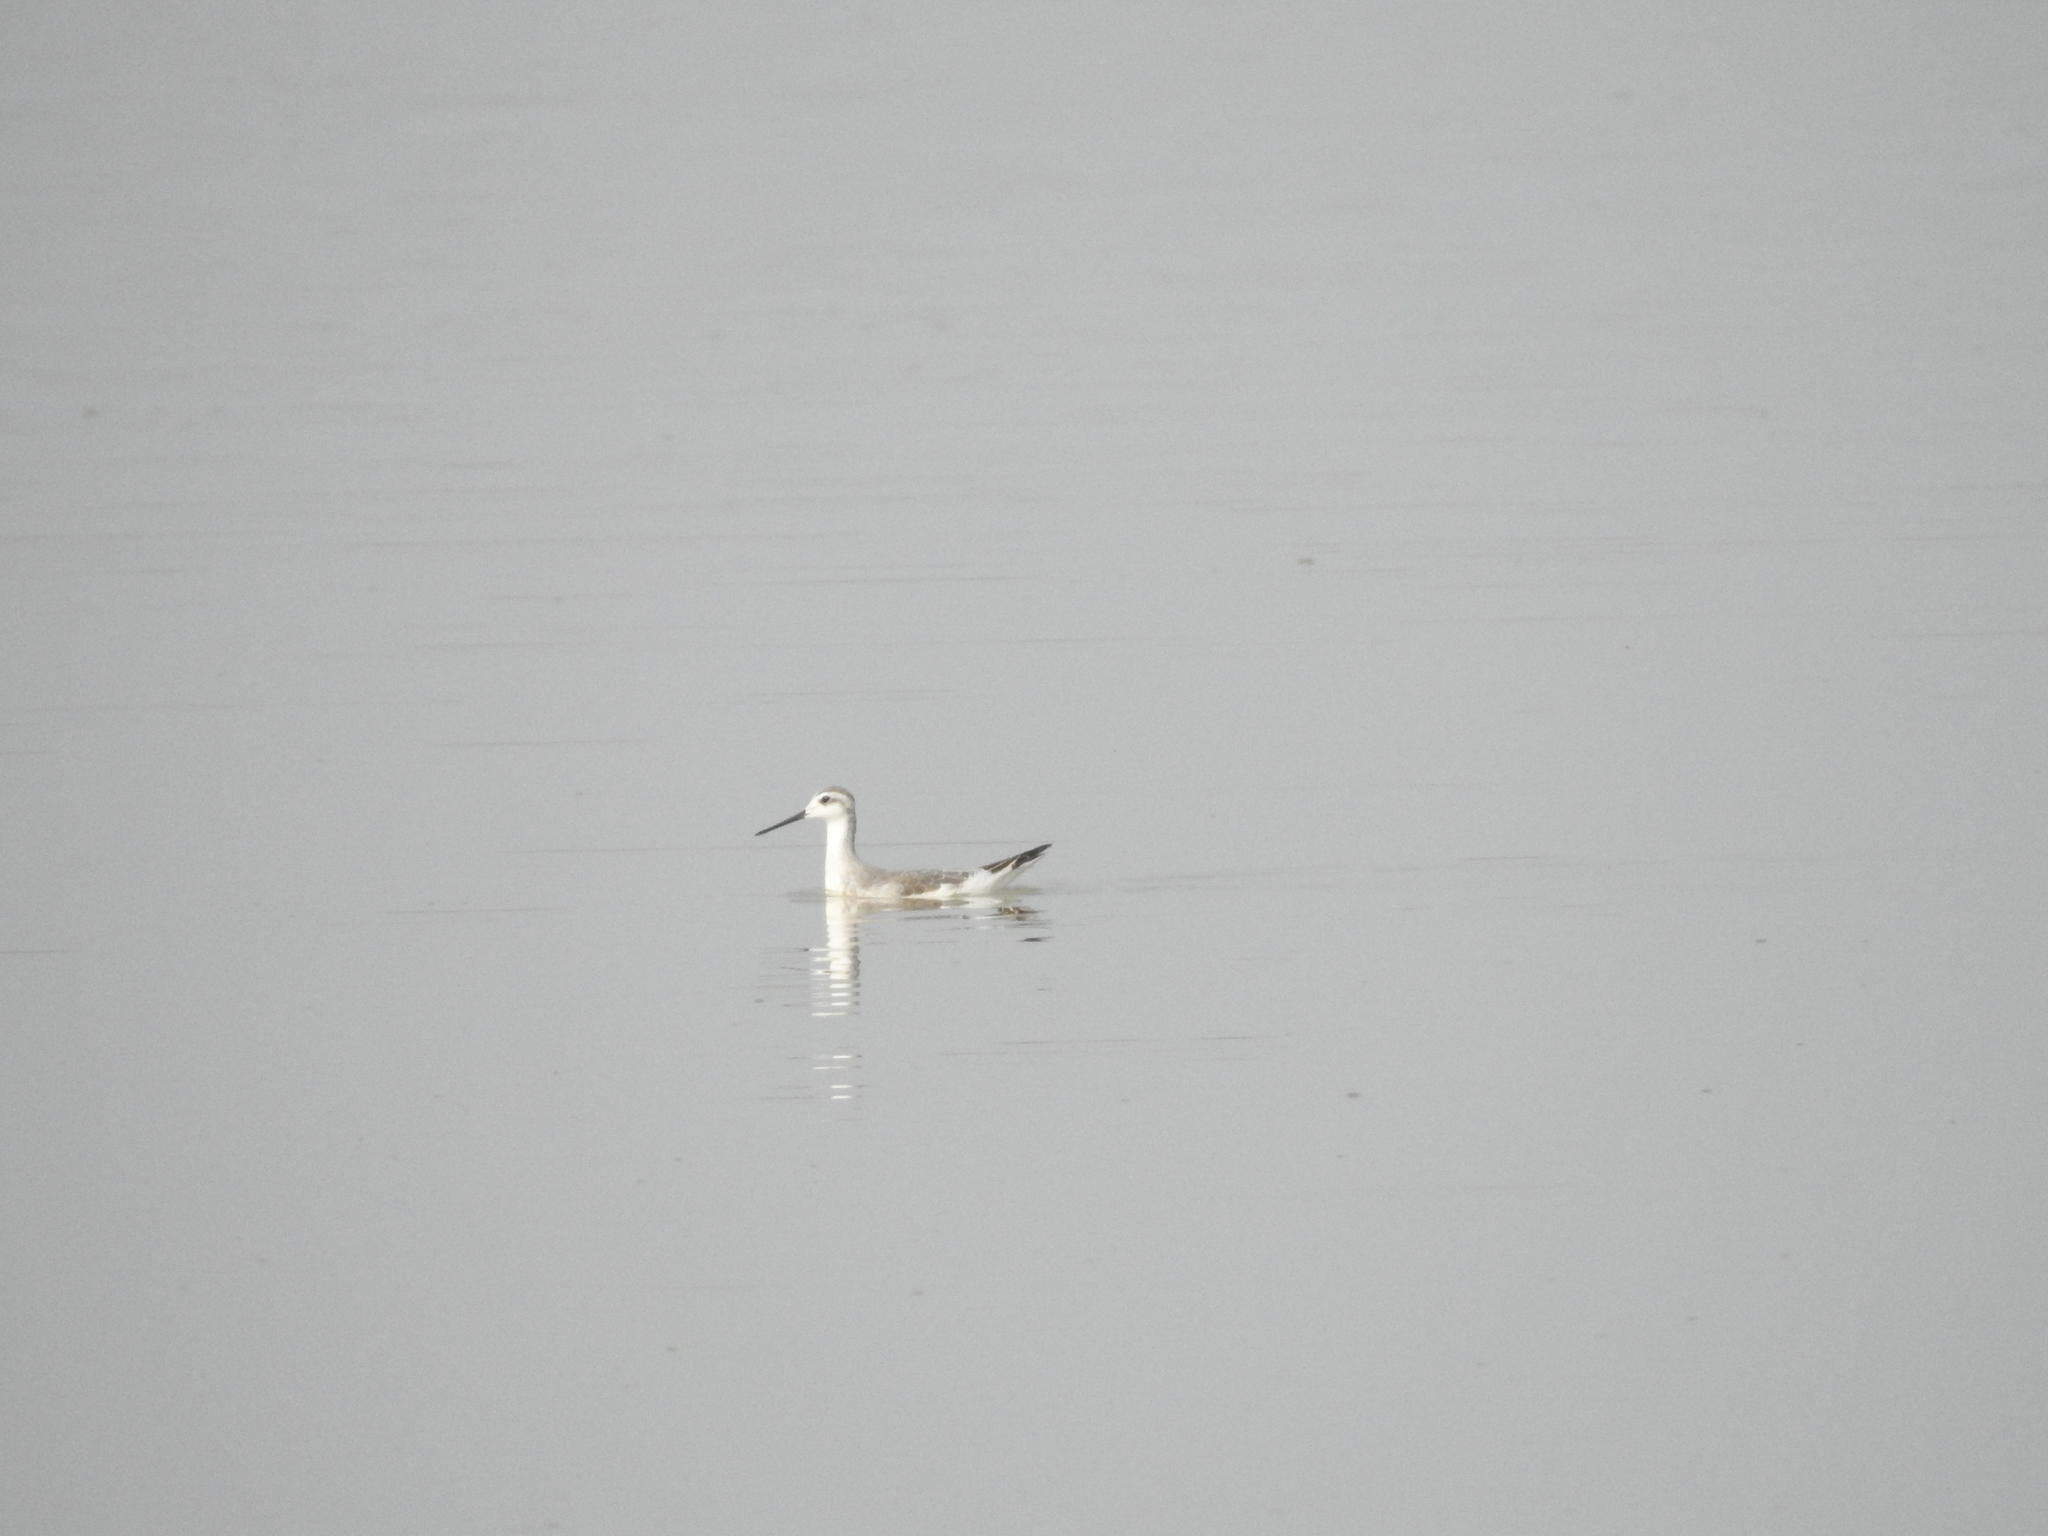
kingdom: Animalia
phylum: Chordata
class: Aves
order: Charadriiformes
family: Scolopacidae
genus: Phalaropus
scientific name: Phalaropus tricolor
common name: Wilson's phalarope
